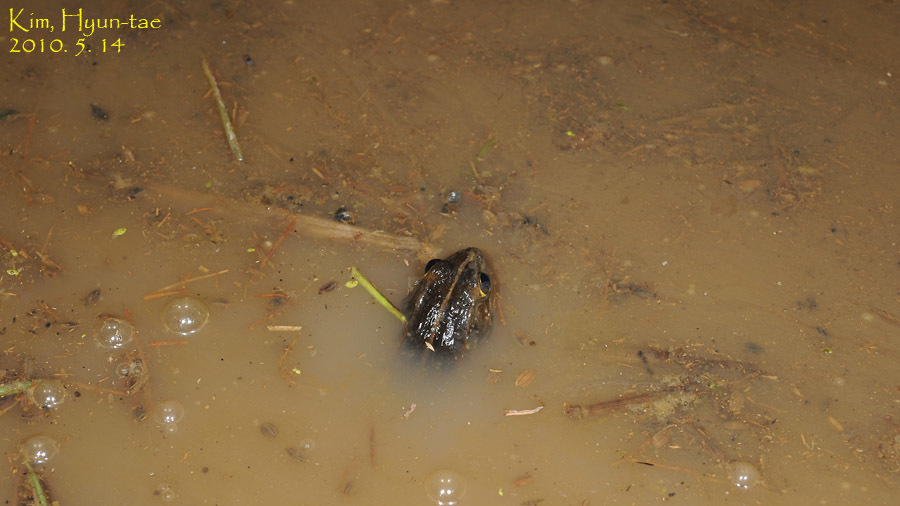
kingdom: Animalia
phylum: Chordata
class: Amphibia
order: Anura
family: Ranidae
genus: Pelophylax
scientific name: Pelophylax nigromaculatus
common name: Black-spotted pond frog
